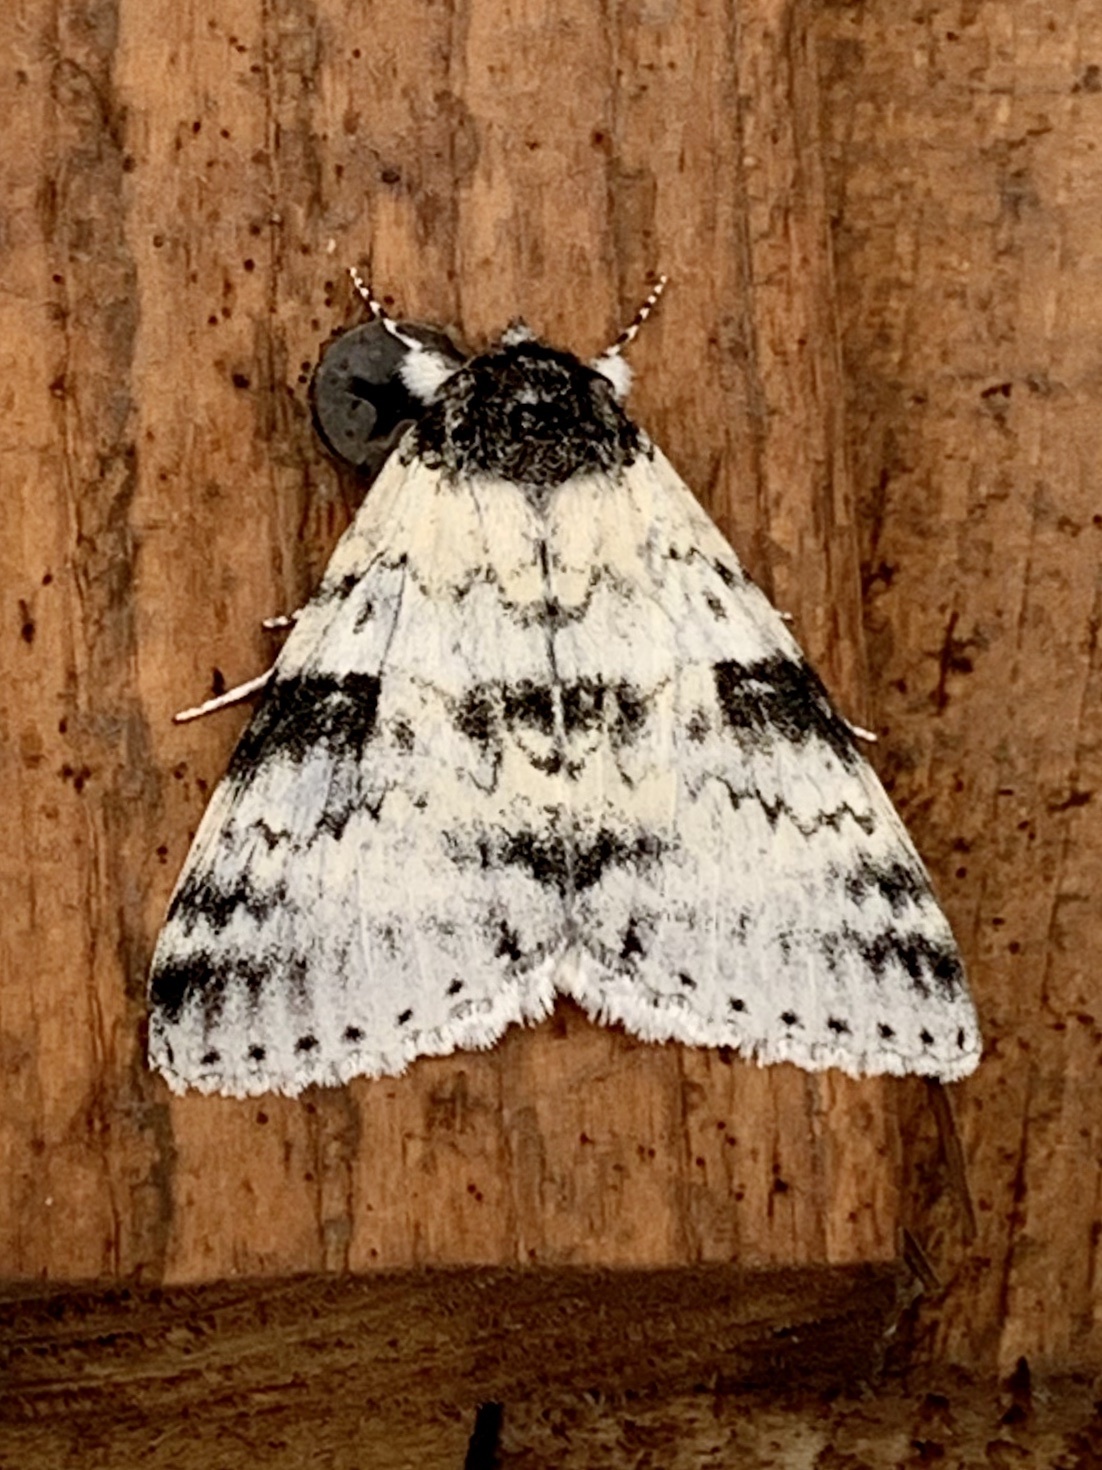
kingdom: Animalia
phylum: Arthropoda
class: Insecta
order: Lepidoptera
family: Erebidae
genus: Catocala
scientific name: Catocala relicta
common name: White underwing
